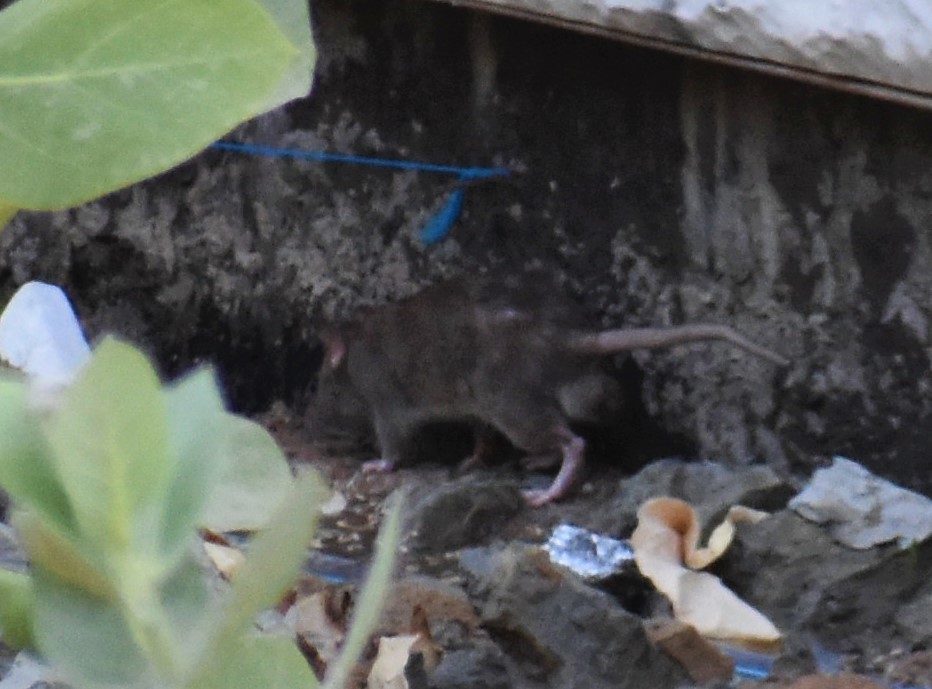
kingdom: Animalia
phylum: Chordata
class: Mammalia
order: Rodentia
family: Muridae
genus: Rattus
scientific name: Rattus norvegicus
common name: Brown rat
